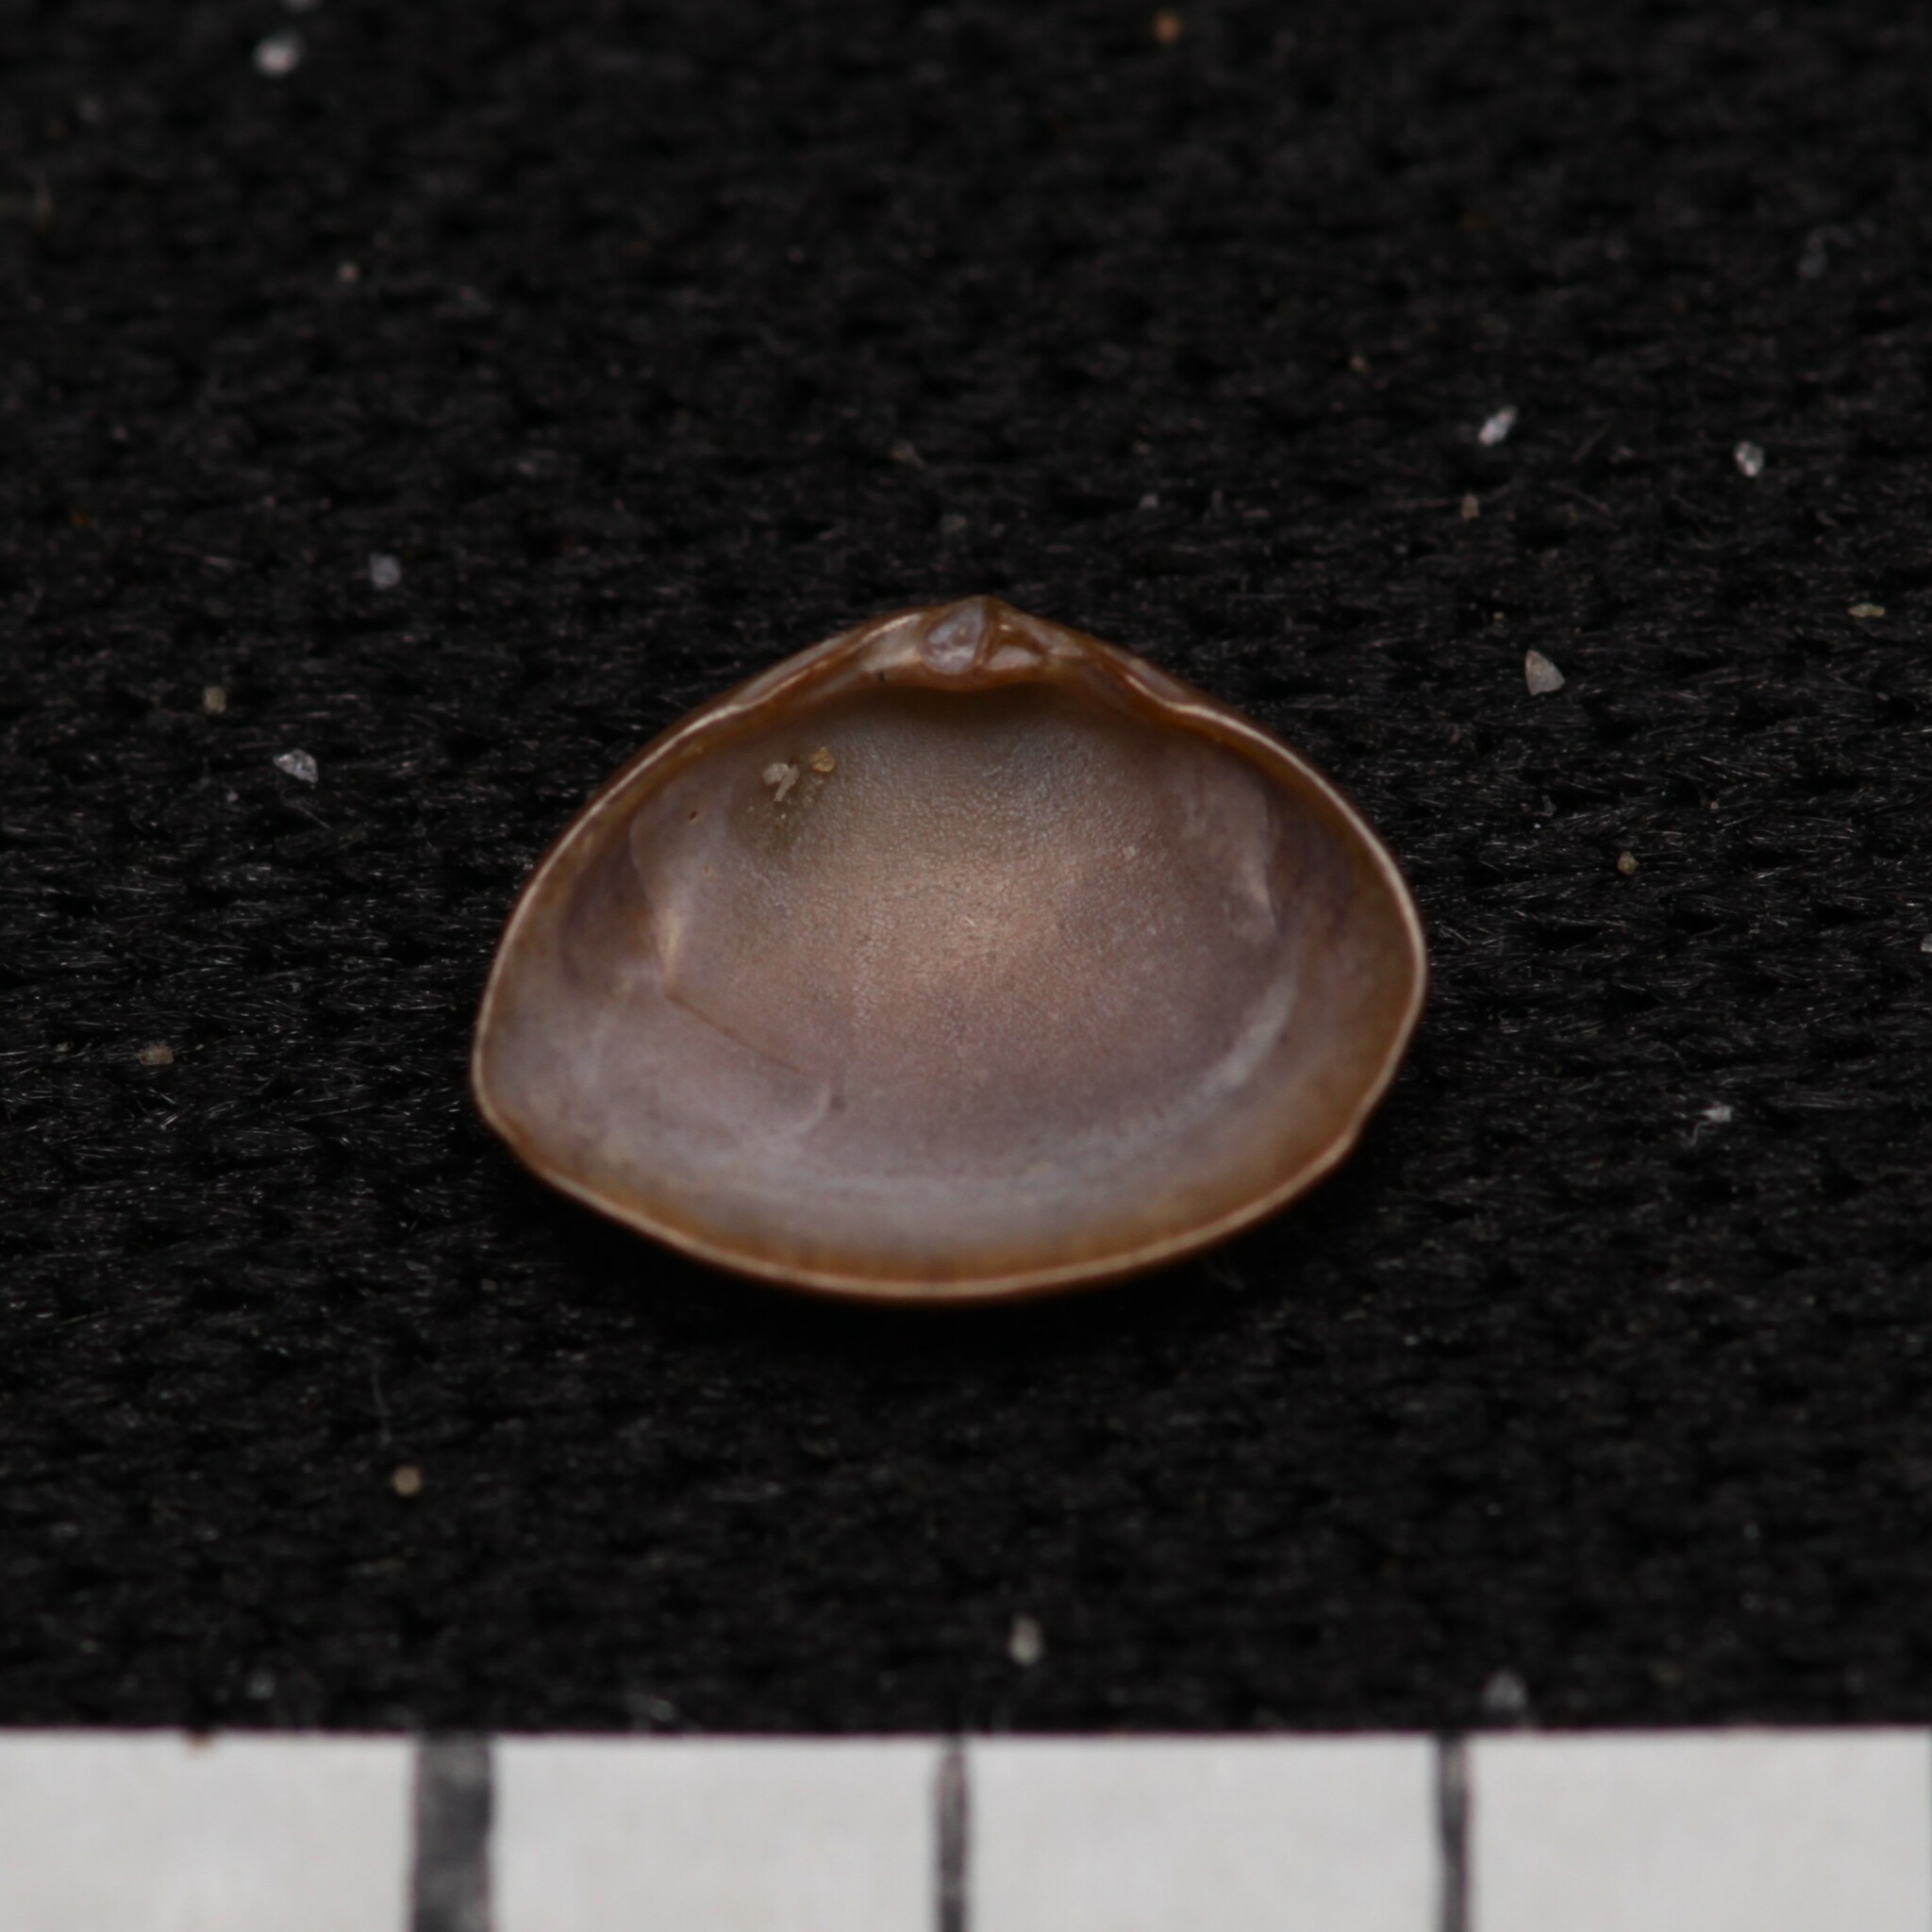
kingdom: Animalia
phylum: Mollusca
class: Bivalvia
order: Venerida
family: Mactridae
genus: Mulinia
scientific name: Mulinia lateralis
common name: Dwarf surfclam
